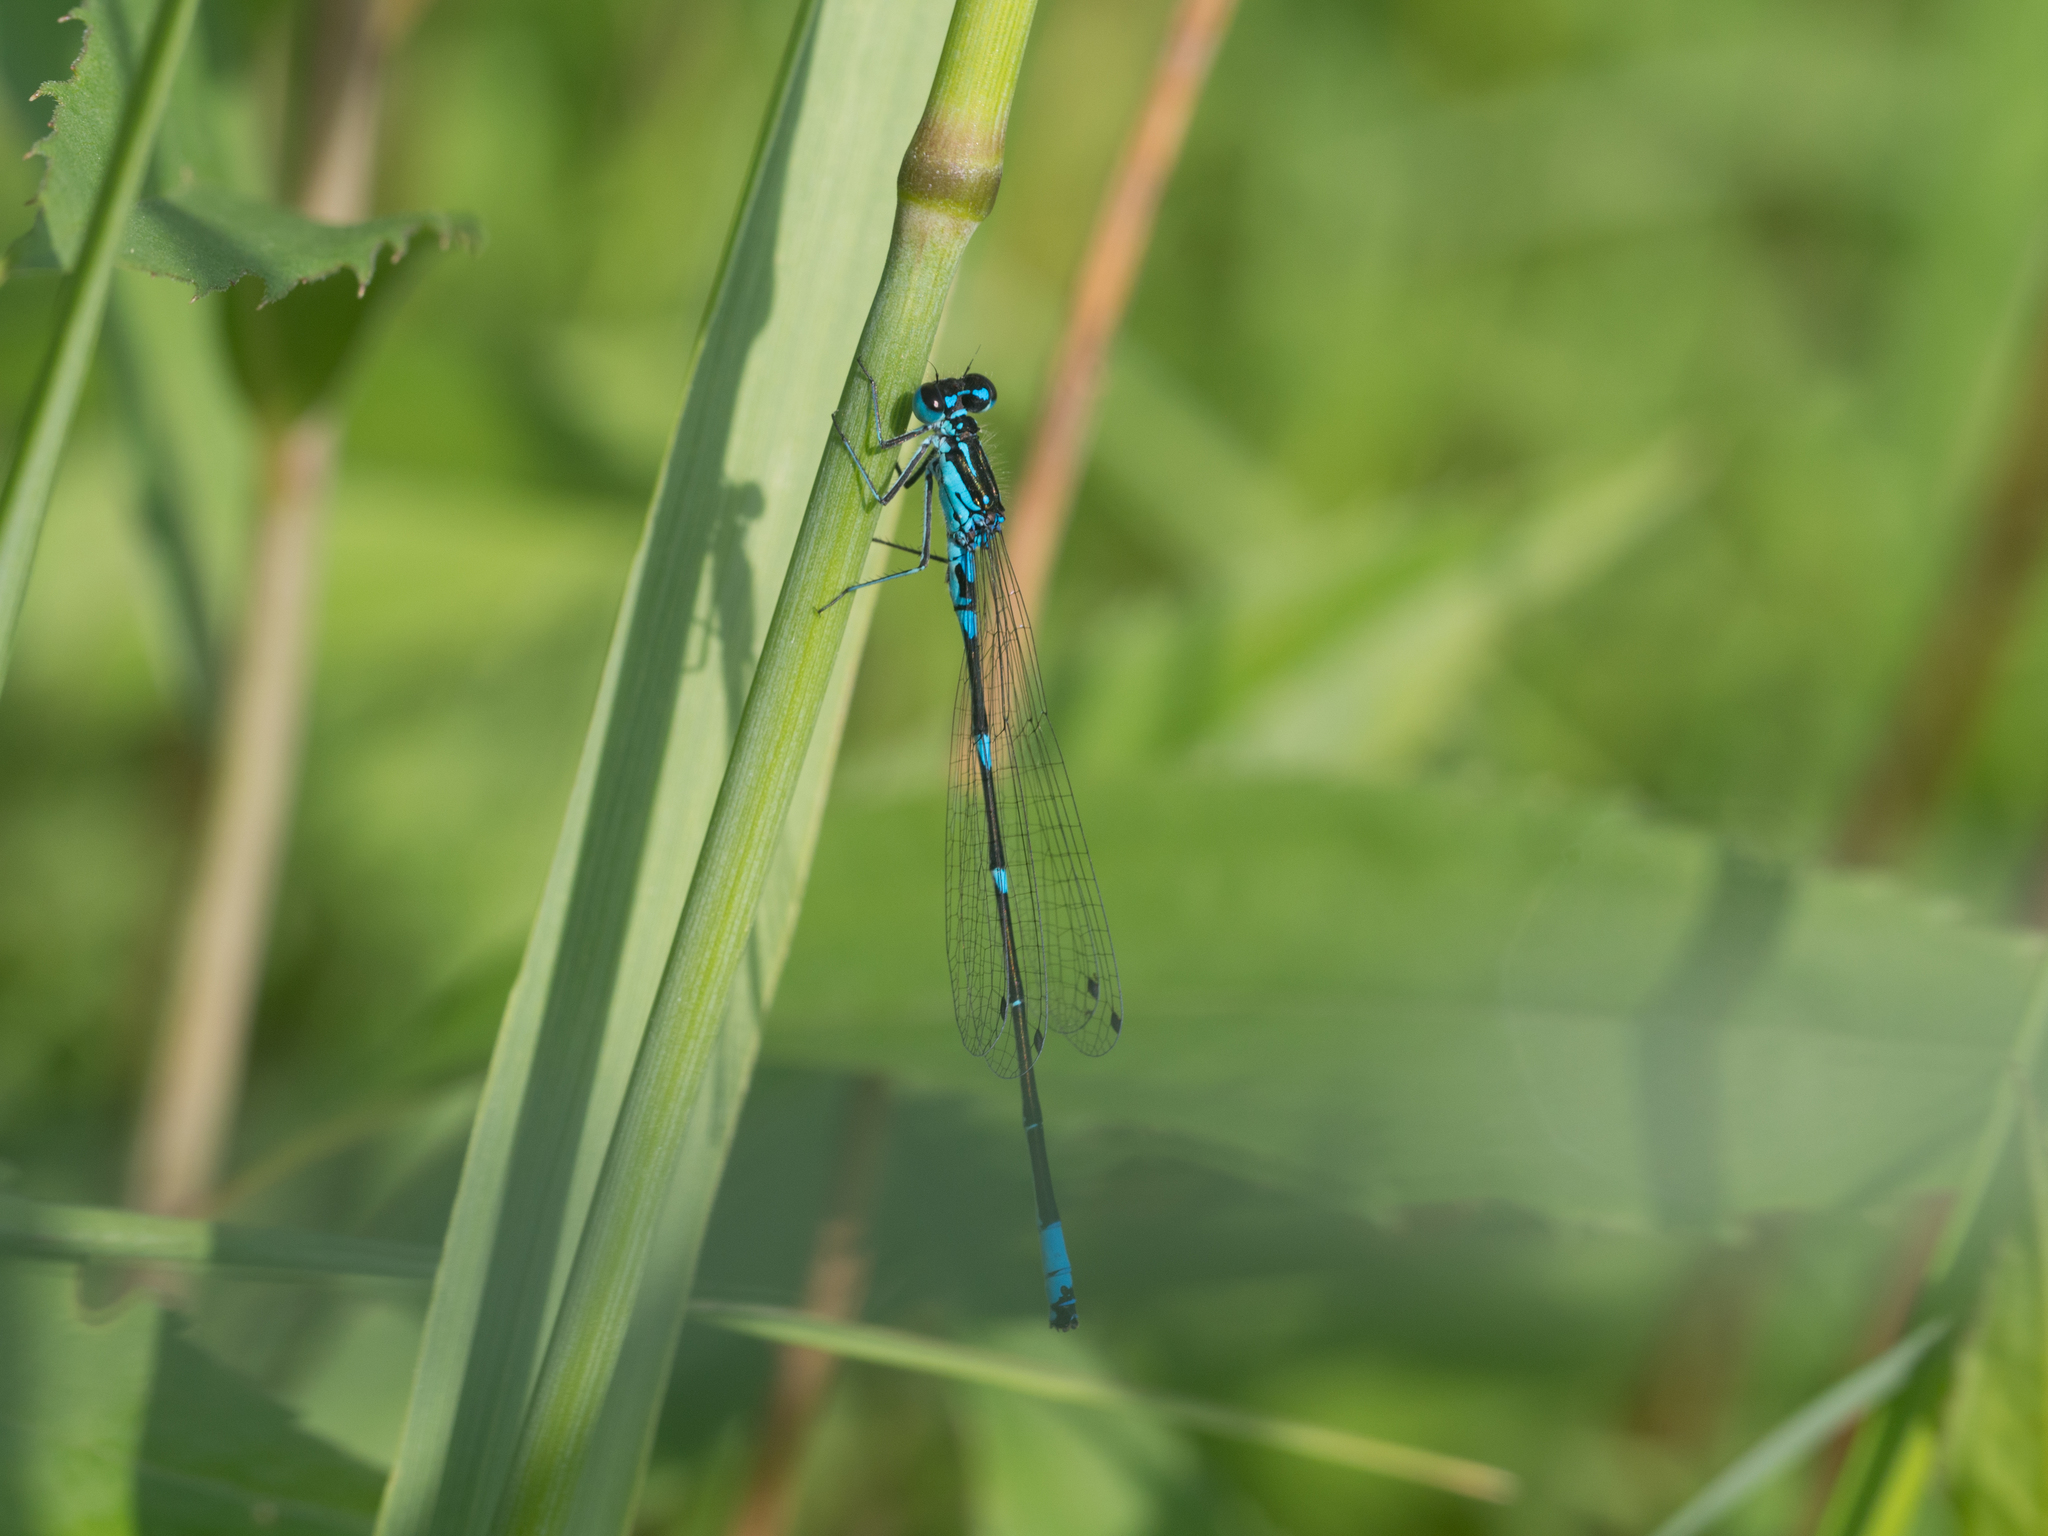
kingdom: Animalia
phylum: Arthropoda
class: Insecta
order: Odonata
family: Coenagrionidae
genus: Coenagrion
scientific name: Coenagrion pulchellum
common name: Variable bluet
